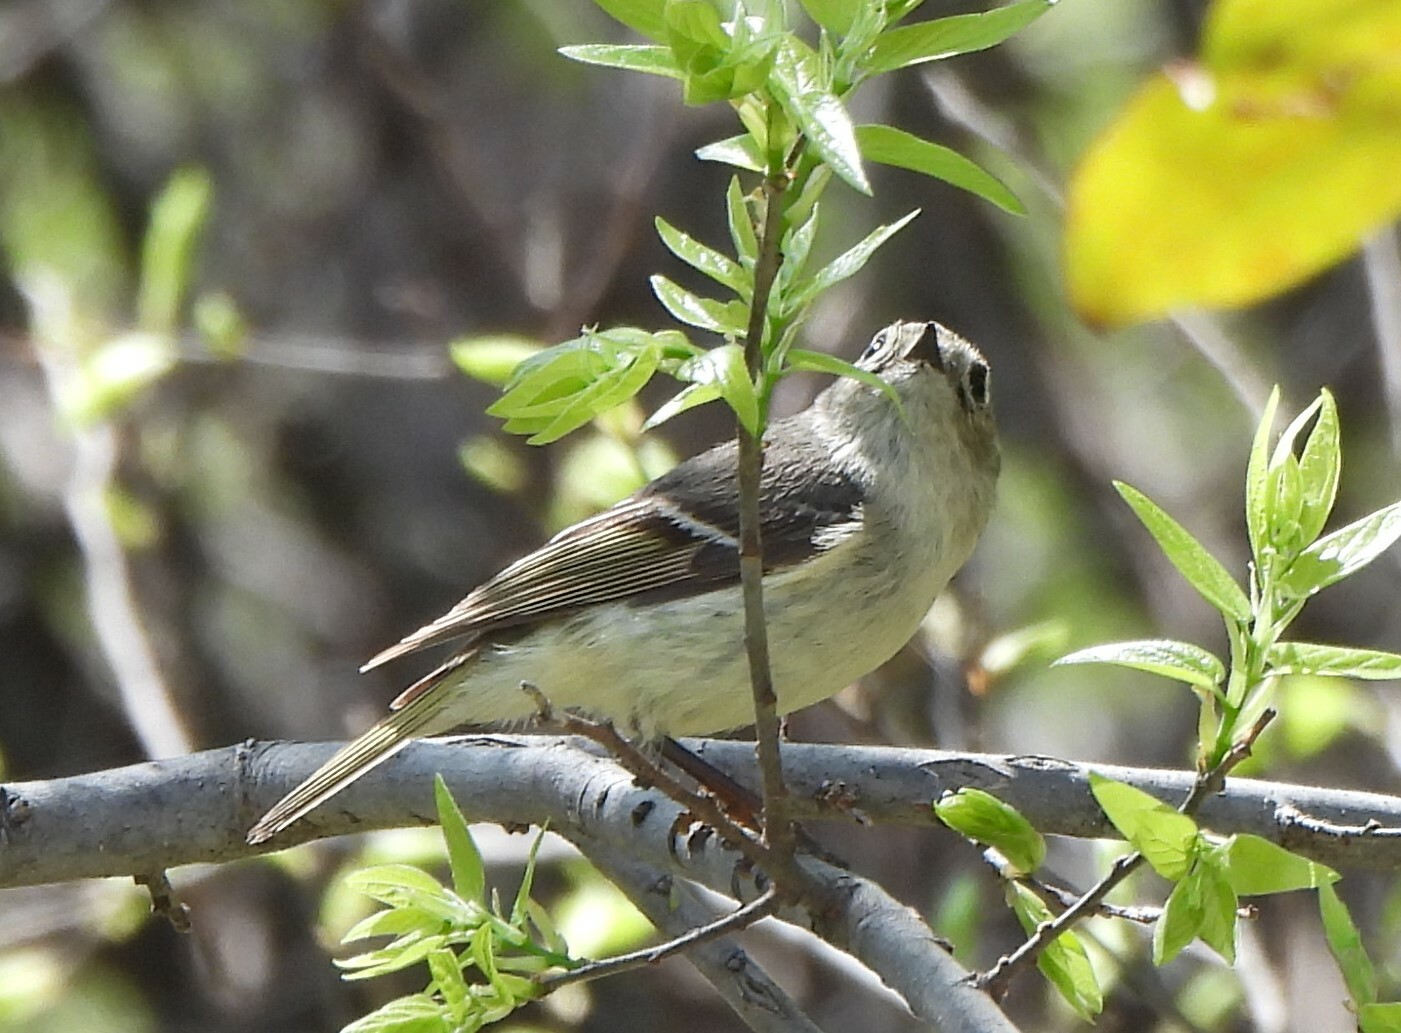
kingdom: Animalia
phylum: Chordata
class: Aves
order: Passeriformes
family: Regulidae
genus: Regulus
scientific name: Regulus calendula
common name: Ruby-crowned kinglet
